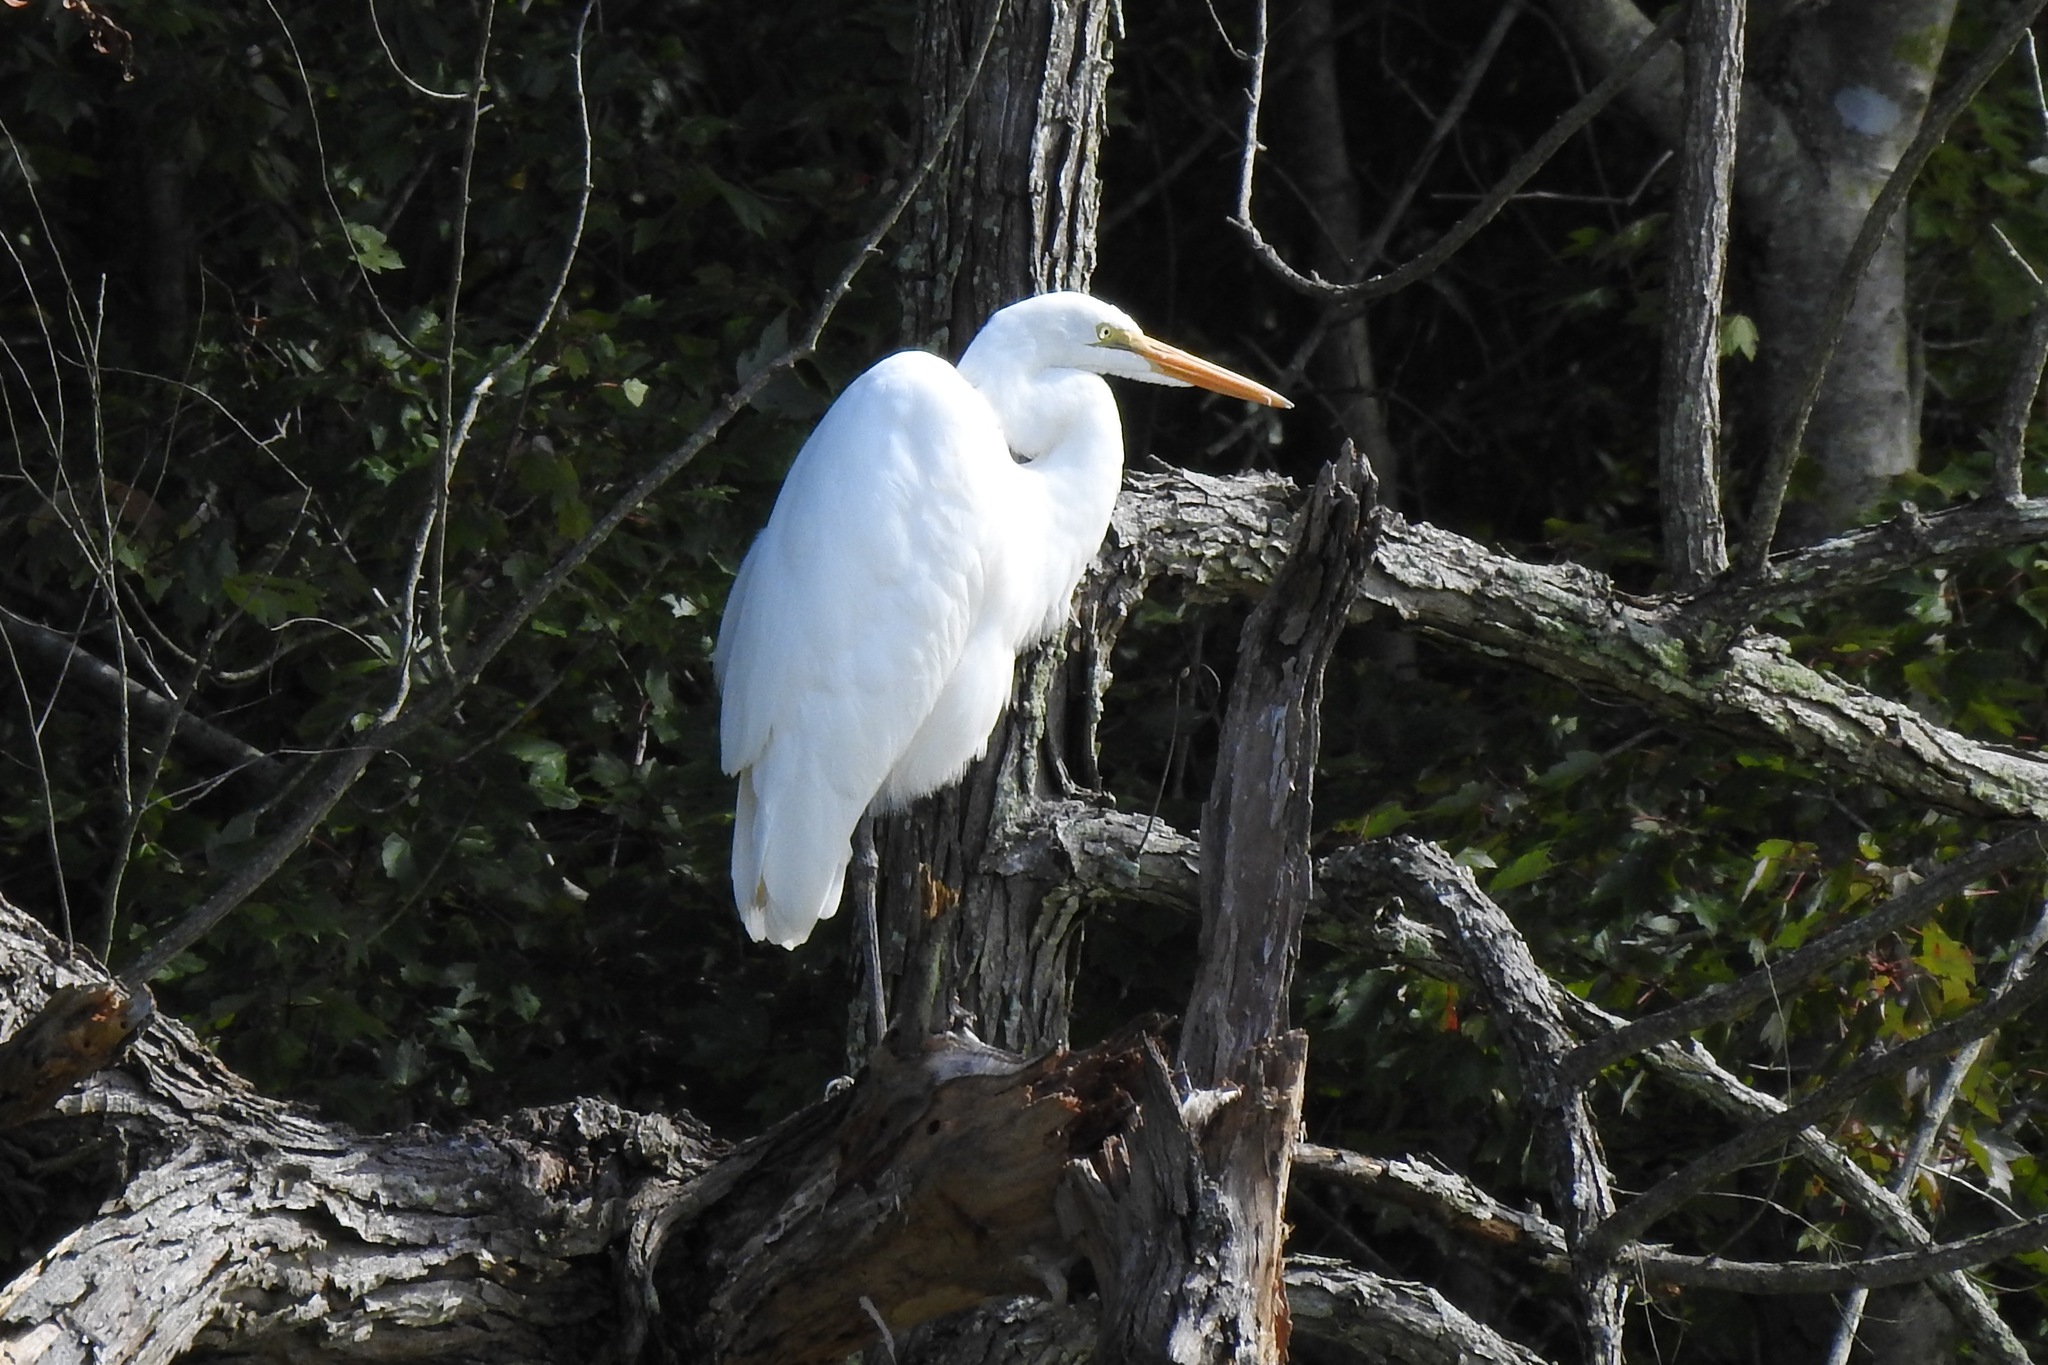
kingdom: Animalia
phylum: Chordata
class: Aves
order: Pelecaniformes
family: Ardeidae
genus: Ardea
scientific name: Ardea alba
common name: Great egret
